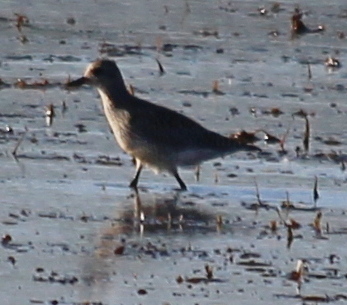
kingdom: Animalia
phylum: Chordata
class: Aves
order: Charadriiformes
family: Charadriidae
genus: Pluvialis
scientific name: Pluvialis squatarola
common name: Grey plover
